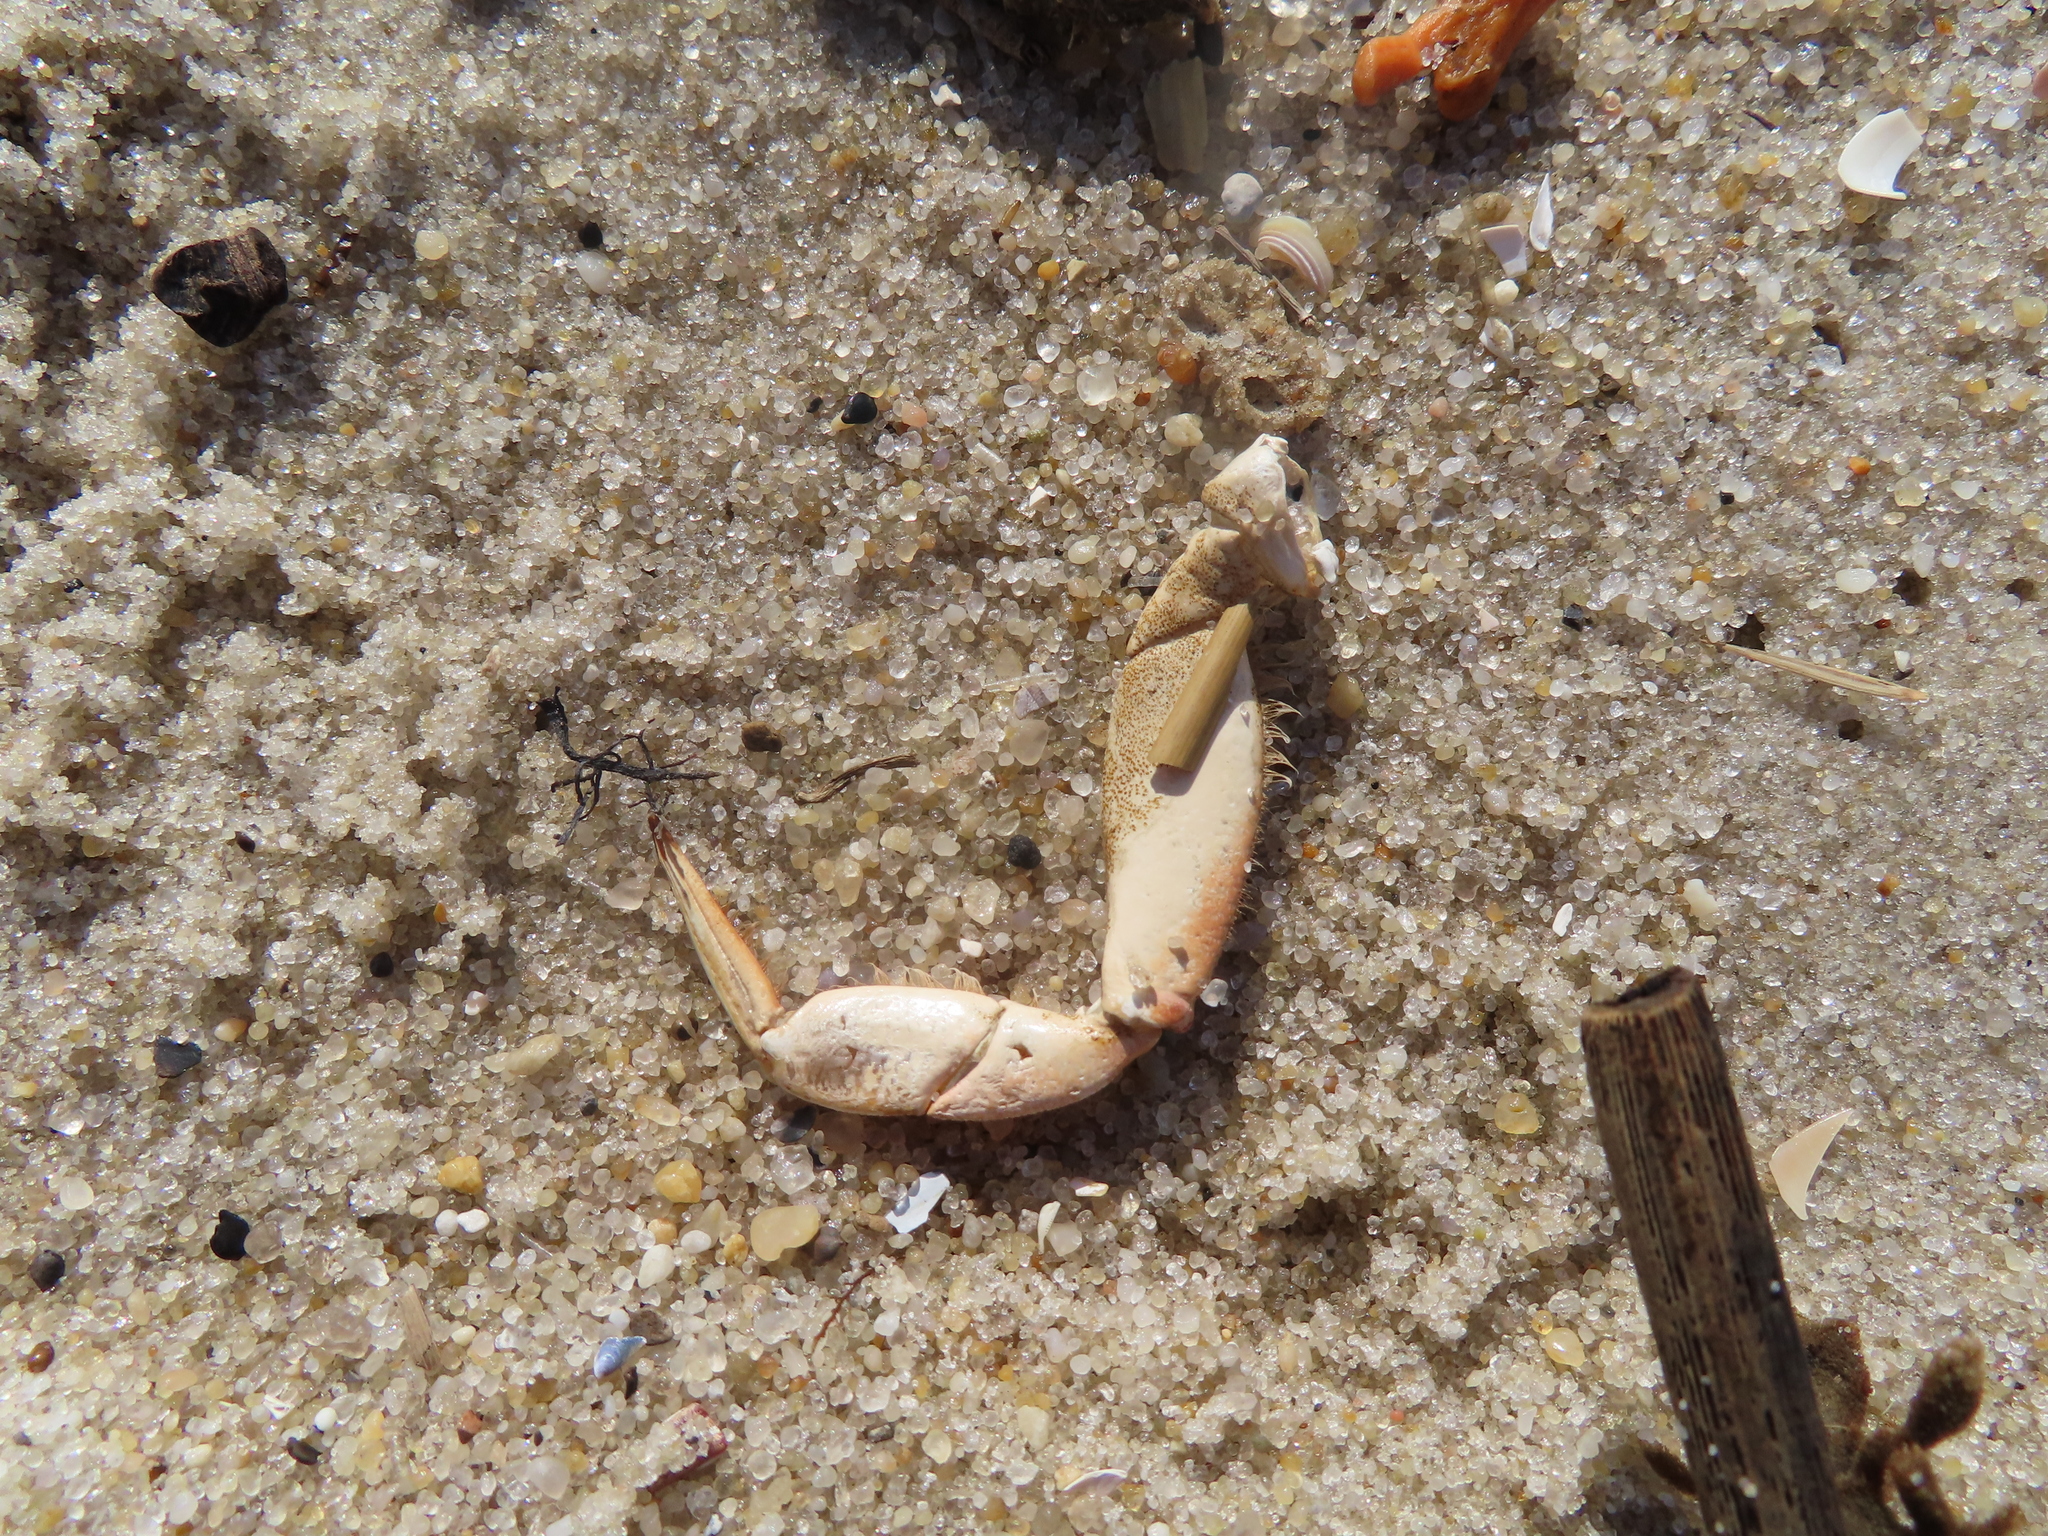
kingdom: Animalia
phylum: Arthropoda
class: Malacostraca
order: Decapoda
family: Cancridae
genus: Cancer
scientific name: Cancer irroratus
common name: Atlantic rock crab
